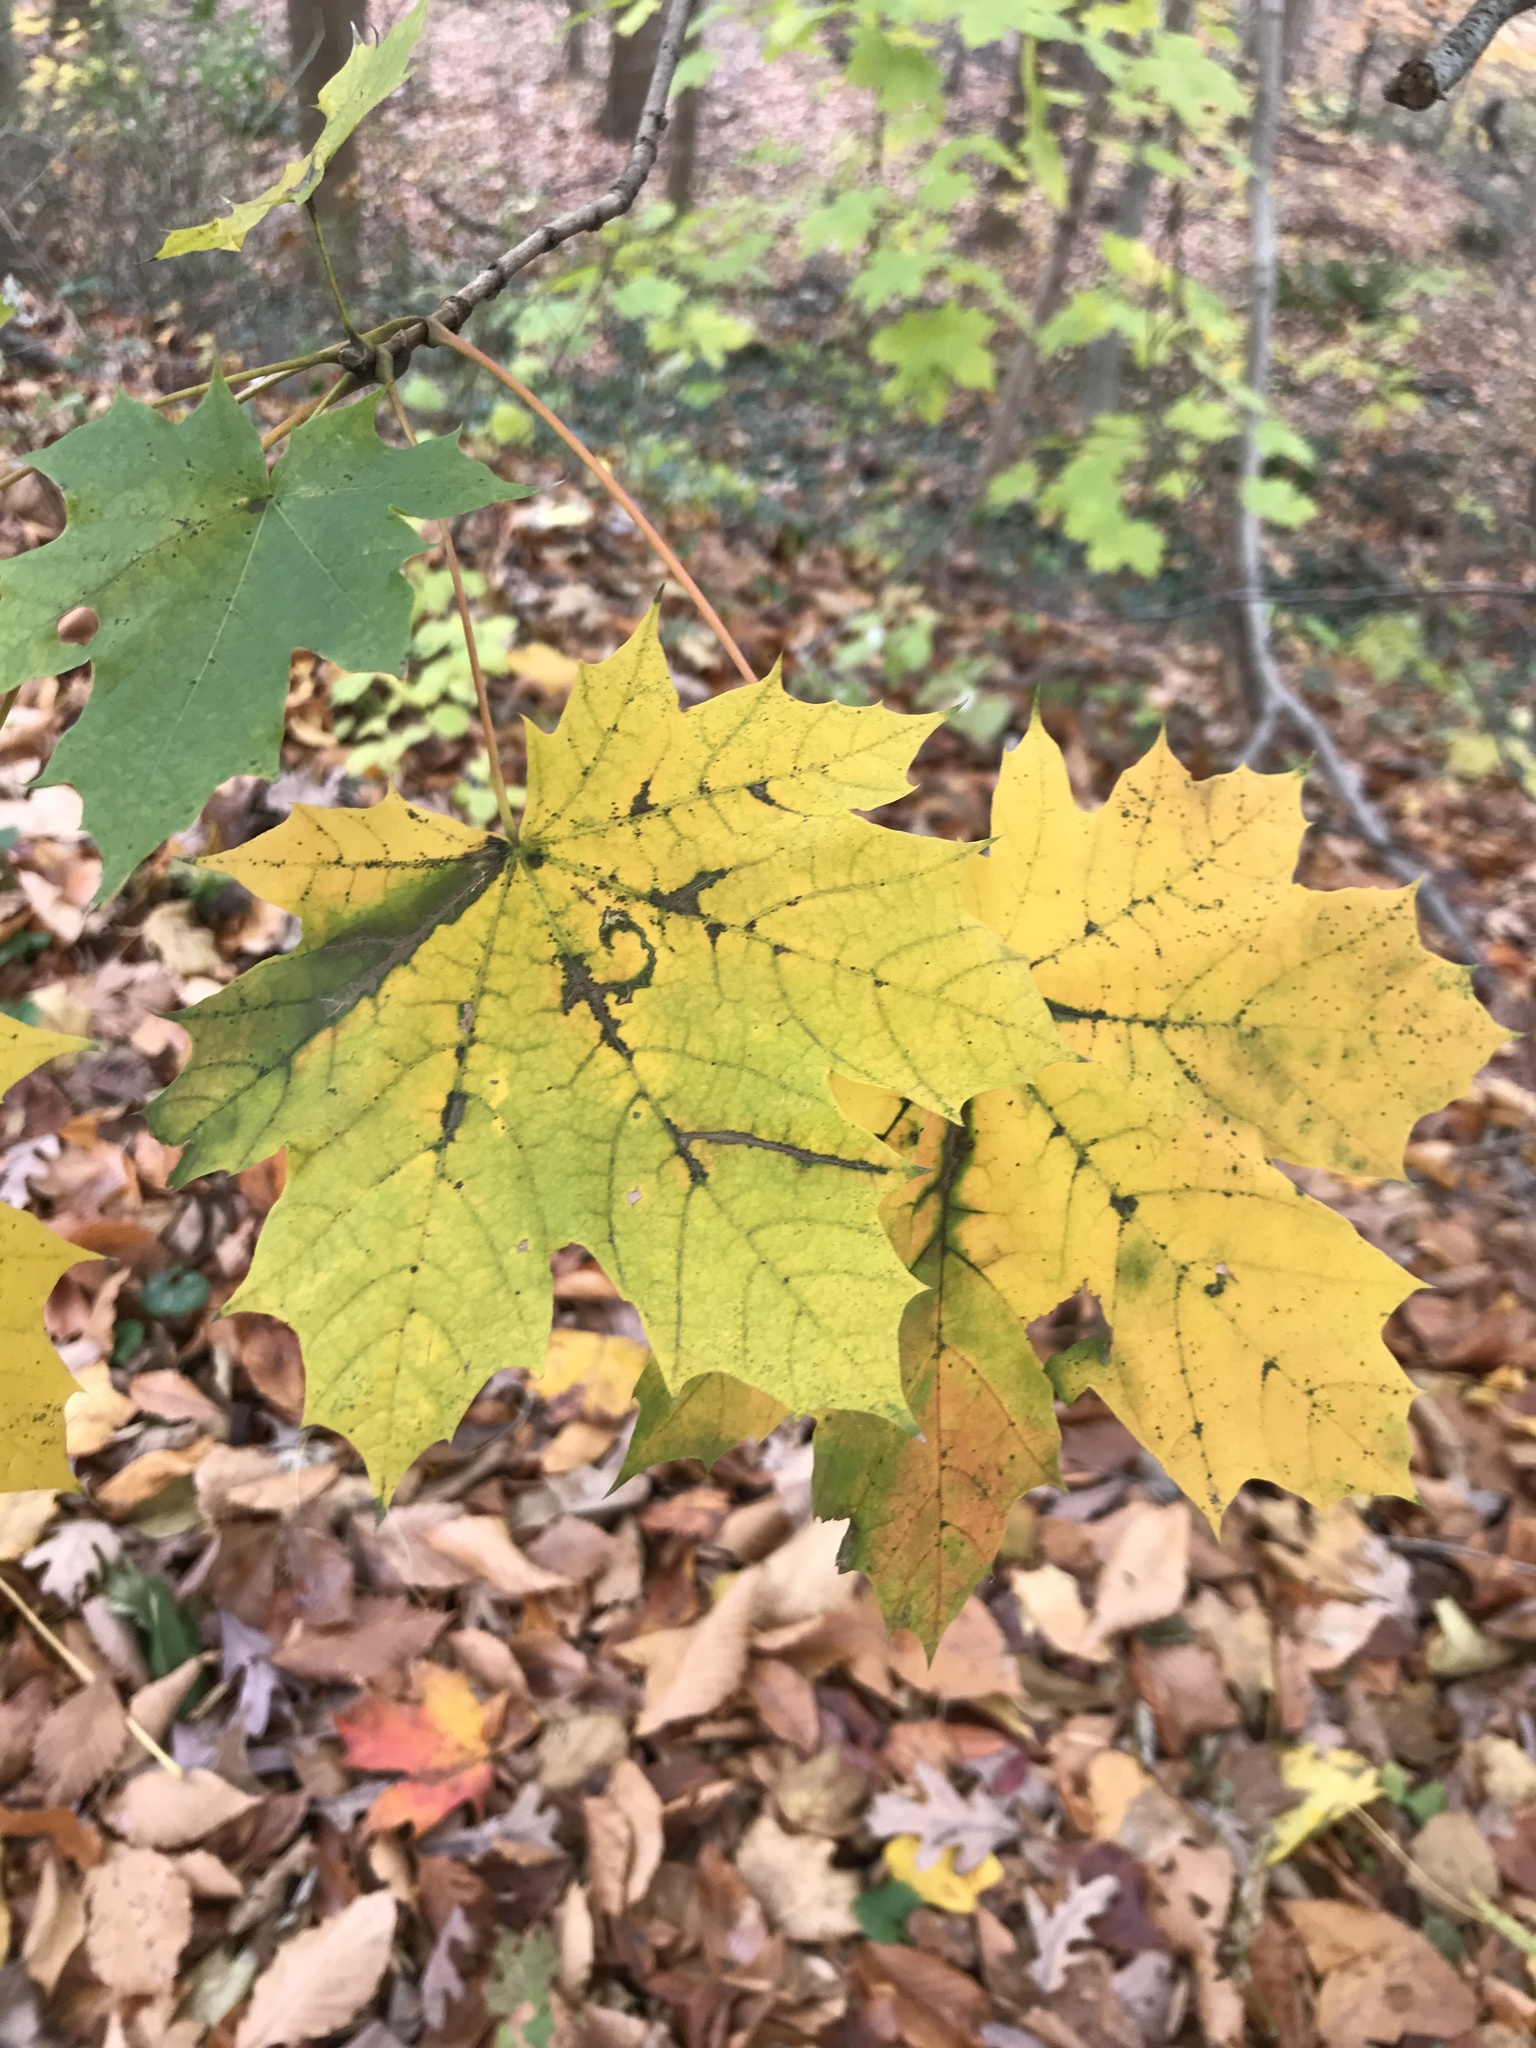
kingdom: Plantae
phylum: Tracheophyta
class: Magnoliopsida
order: Sapindales
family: Sapindaceae
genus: Acer
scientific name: Acer platanoides
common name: Norway maple
